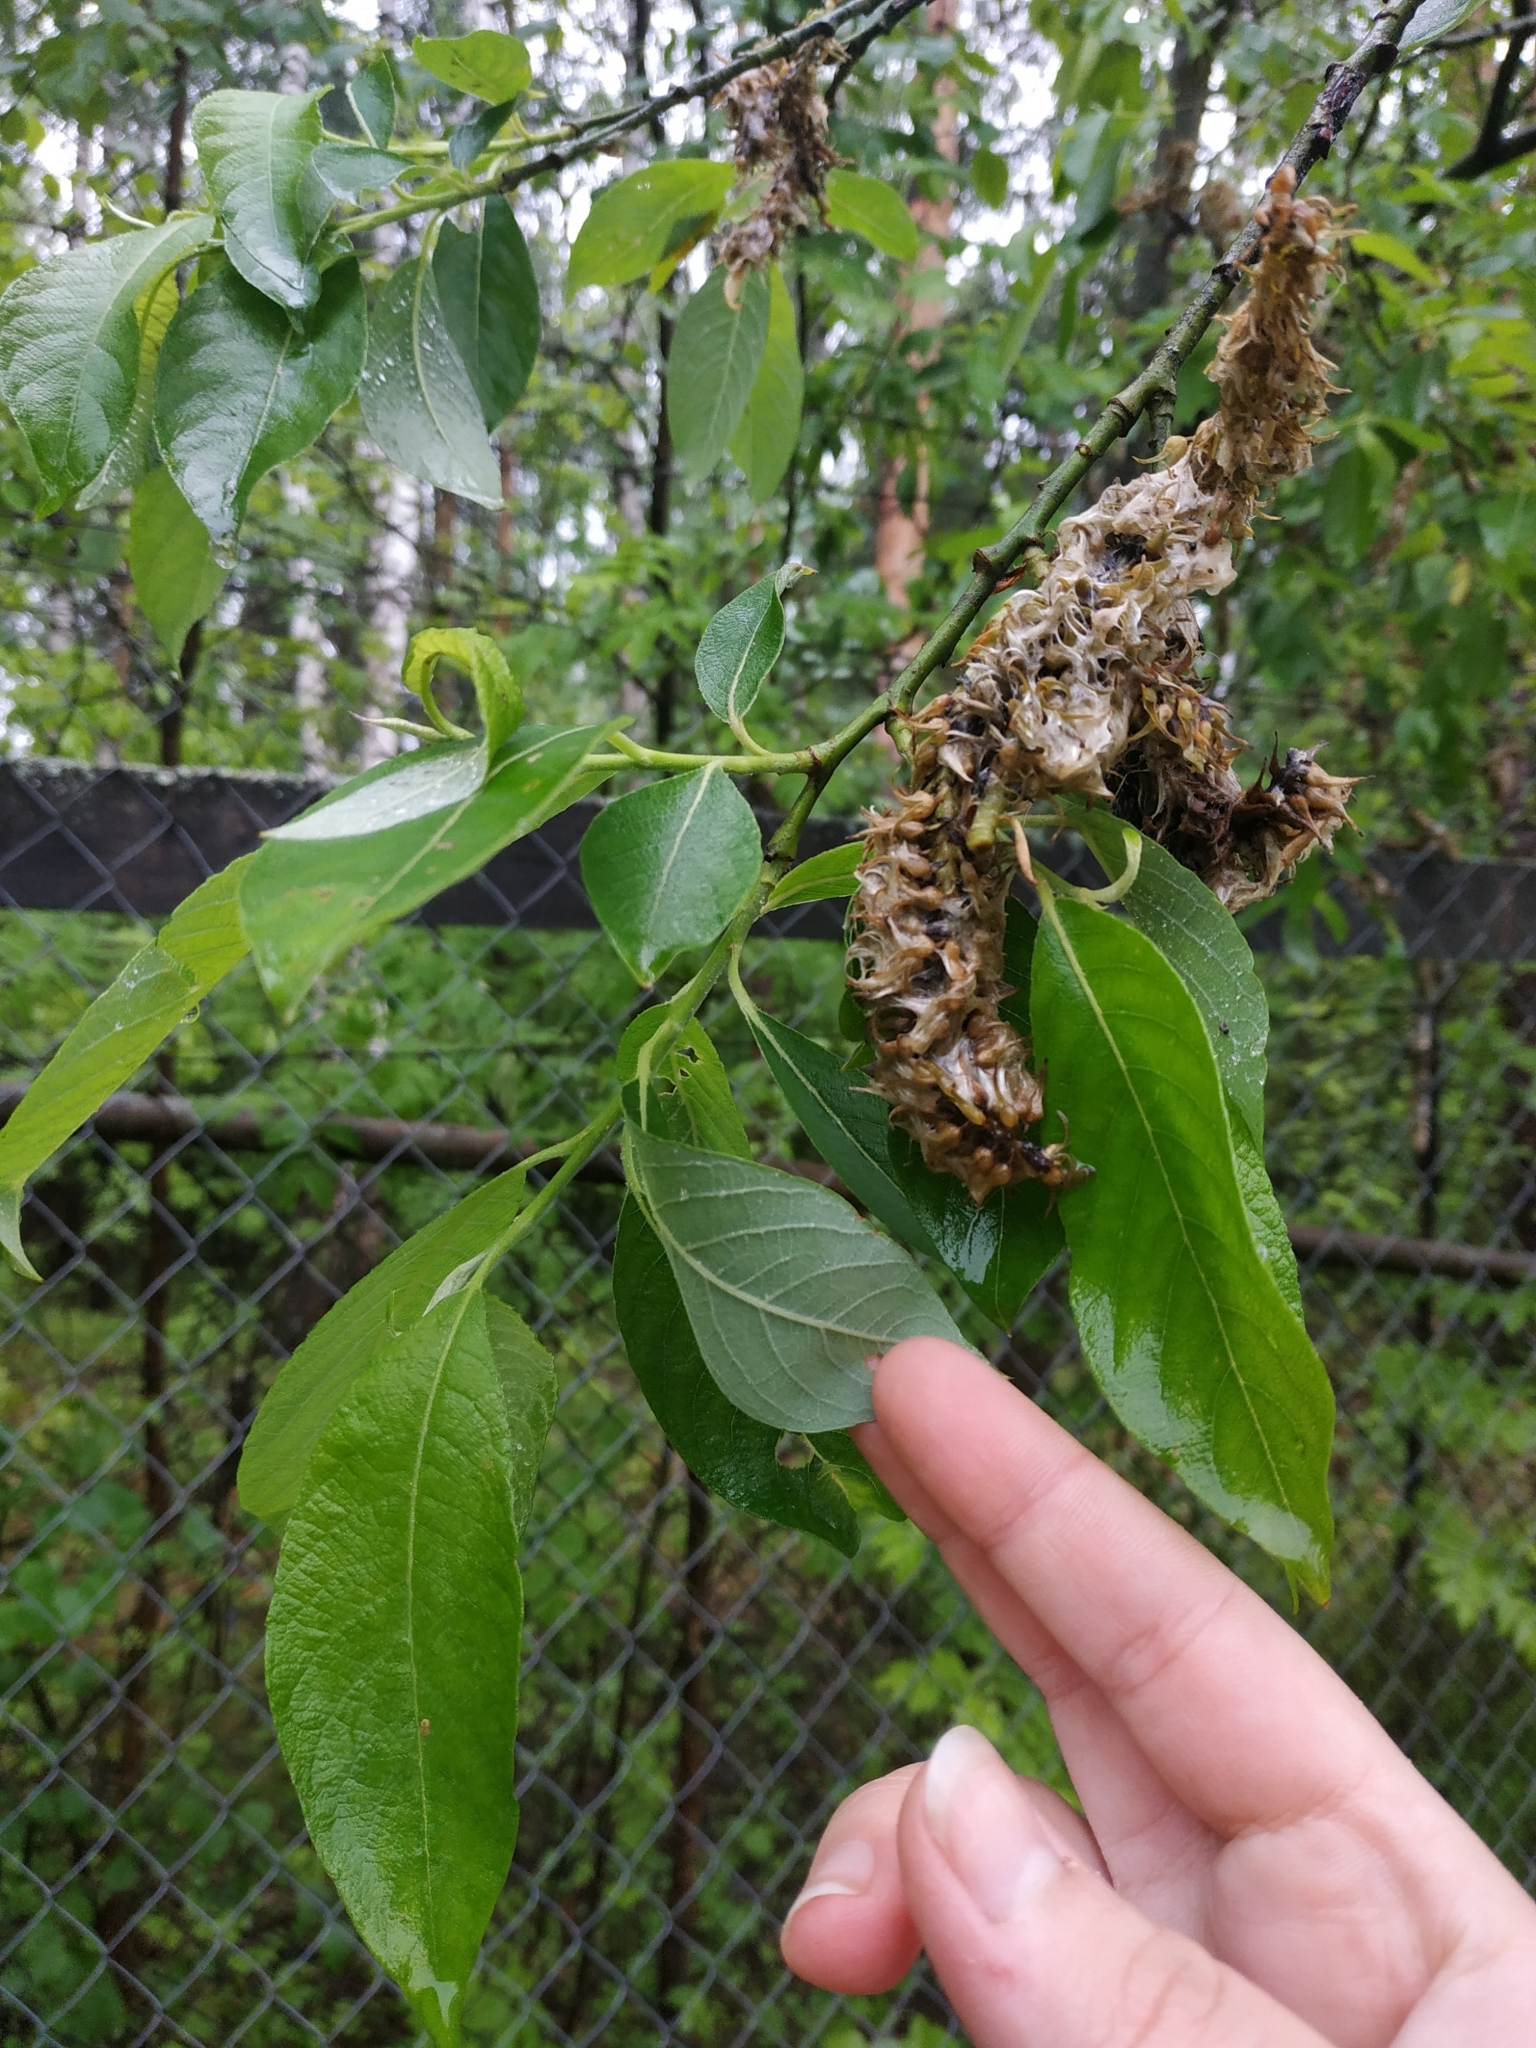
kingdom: Plantae
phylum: Tracheophyta
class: Magnoliopsida
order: Malpighiales
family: Salicaceae
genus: Salix
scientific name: Salix caprea
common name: Goat willow
